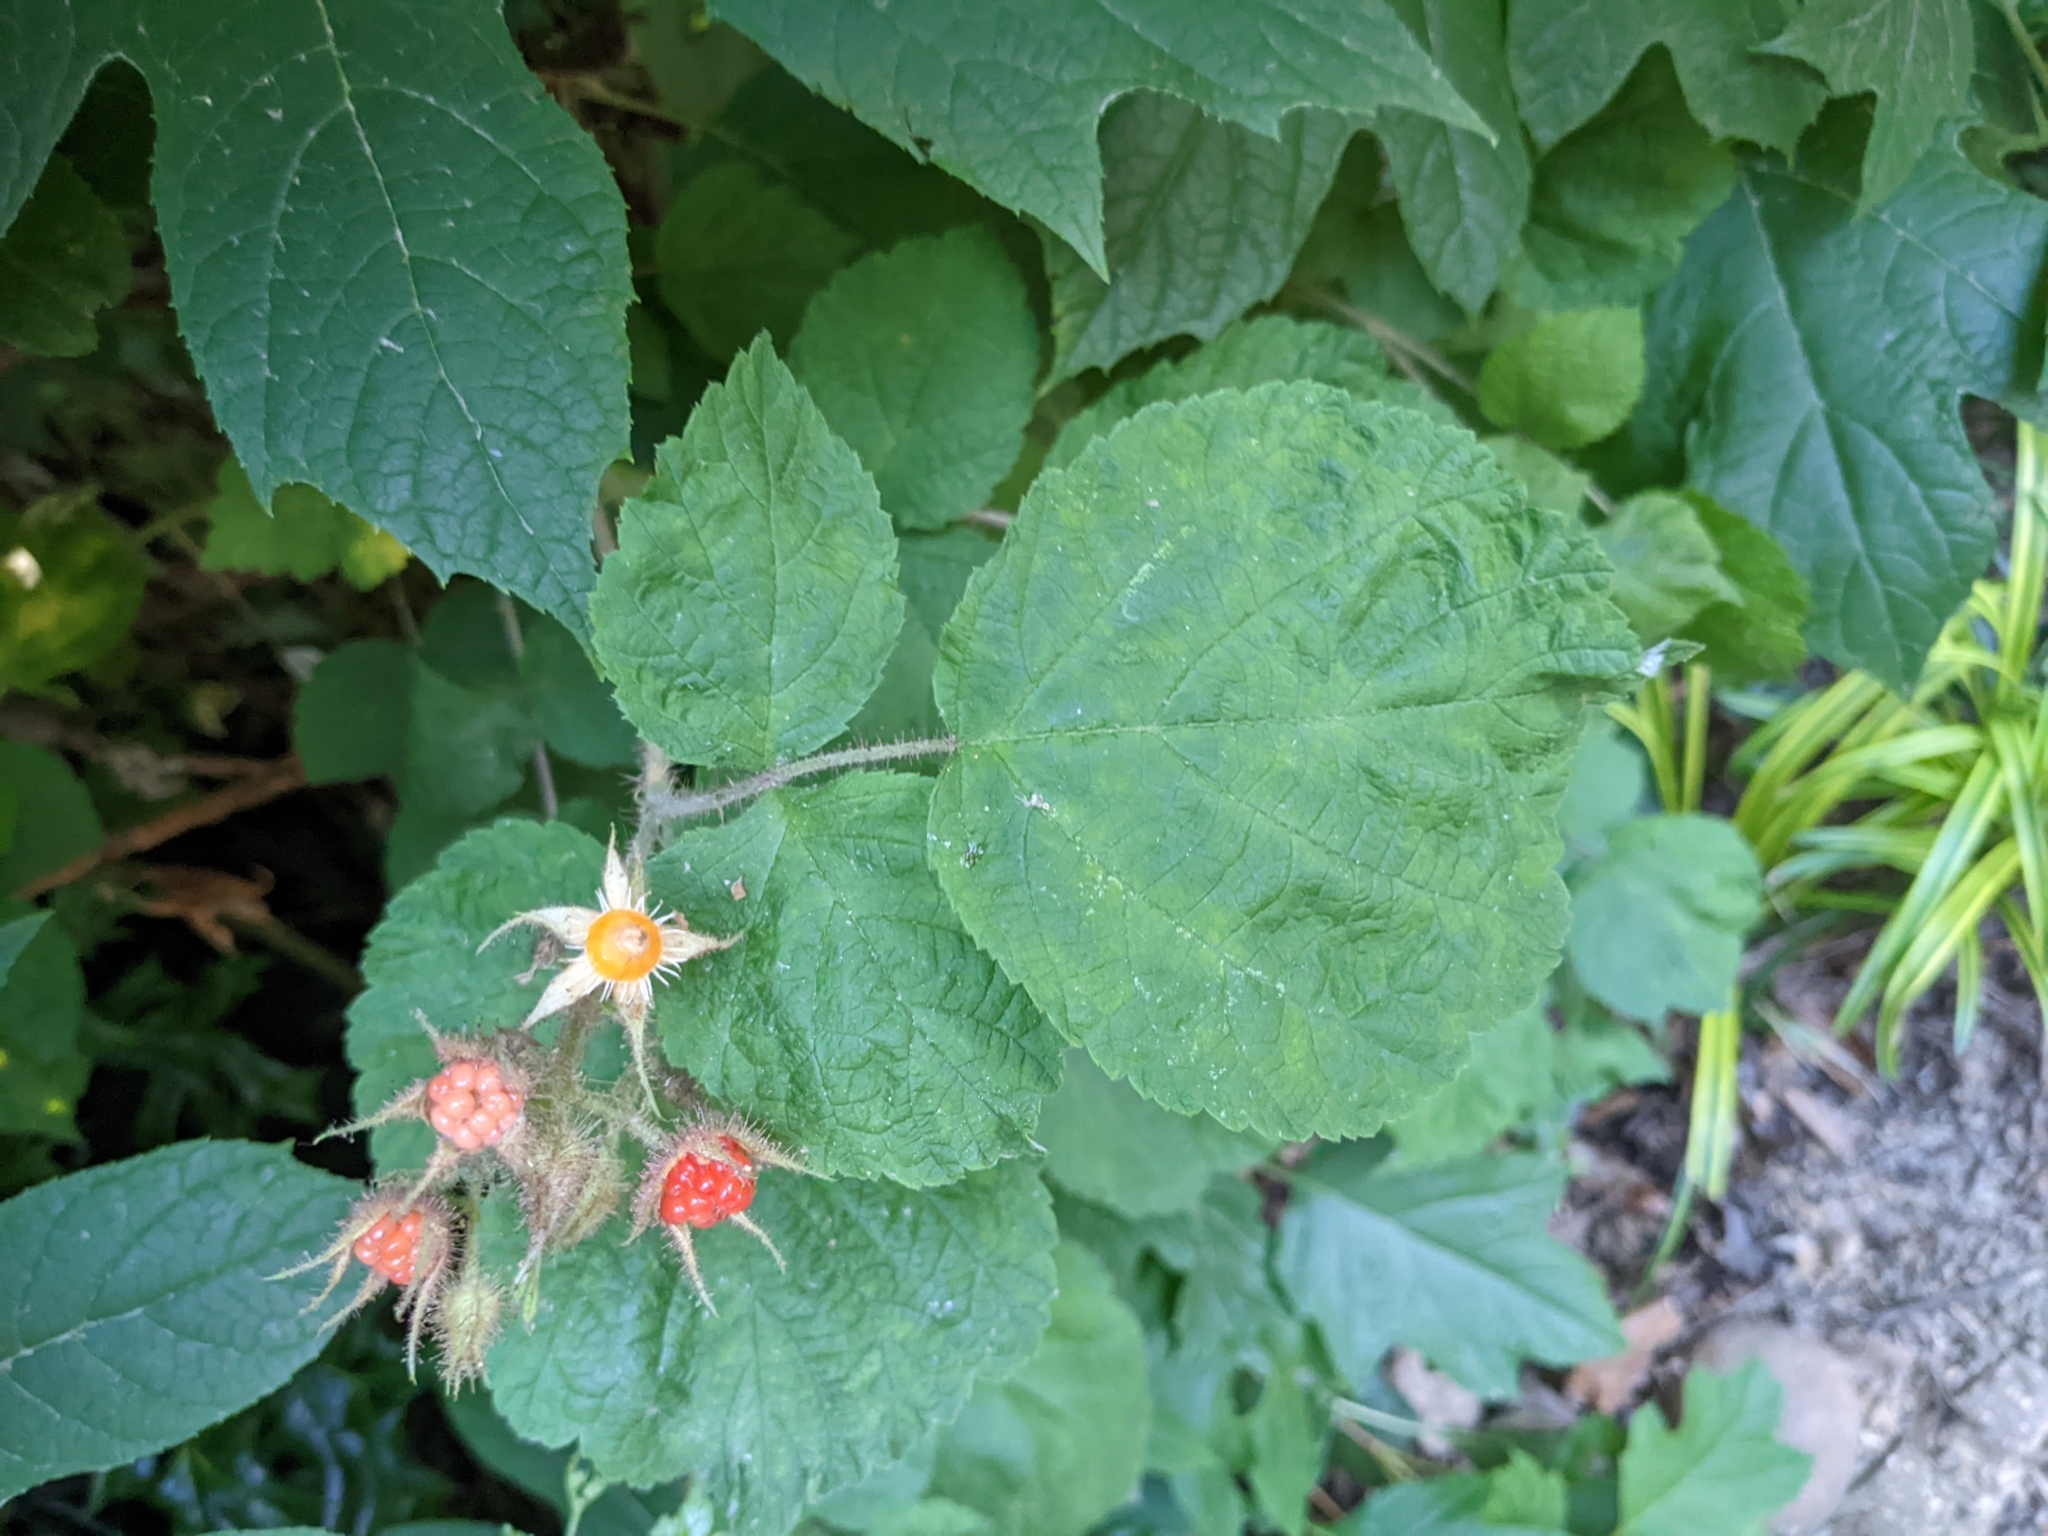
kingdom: Plantae
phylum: Tracheophyta
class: Magnoliopsida
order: Rosales
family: Rosaceae
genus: Rubus
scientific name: Rubus phoenicolasius
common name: Japanese wineberry
